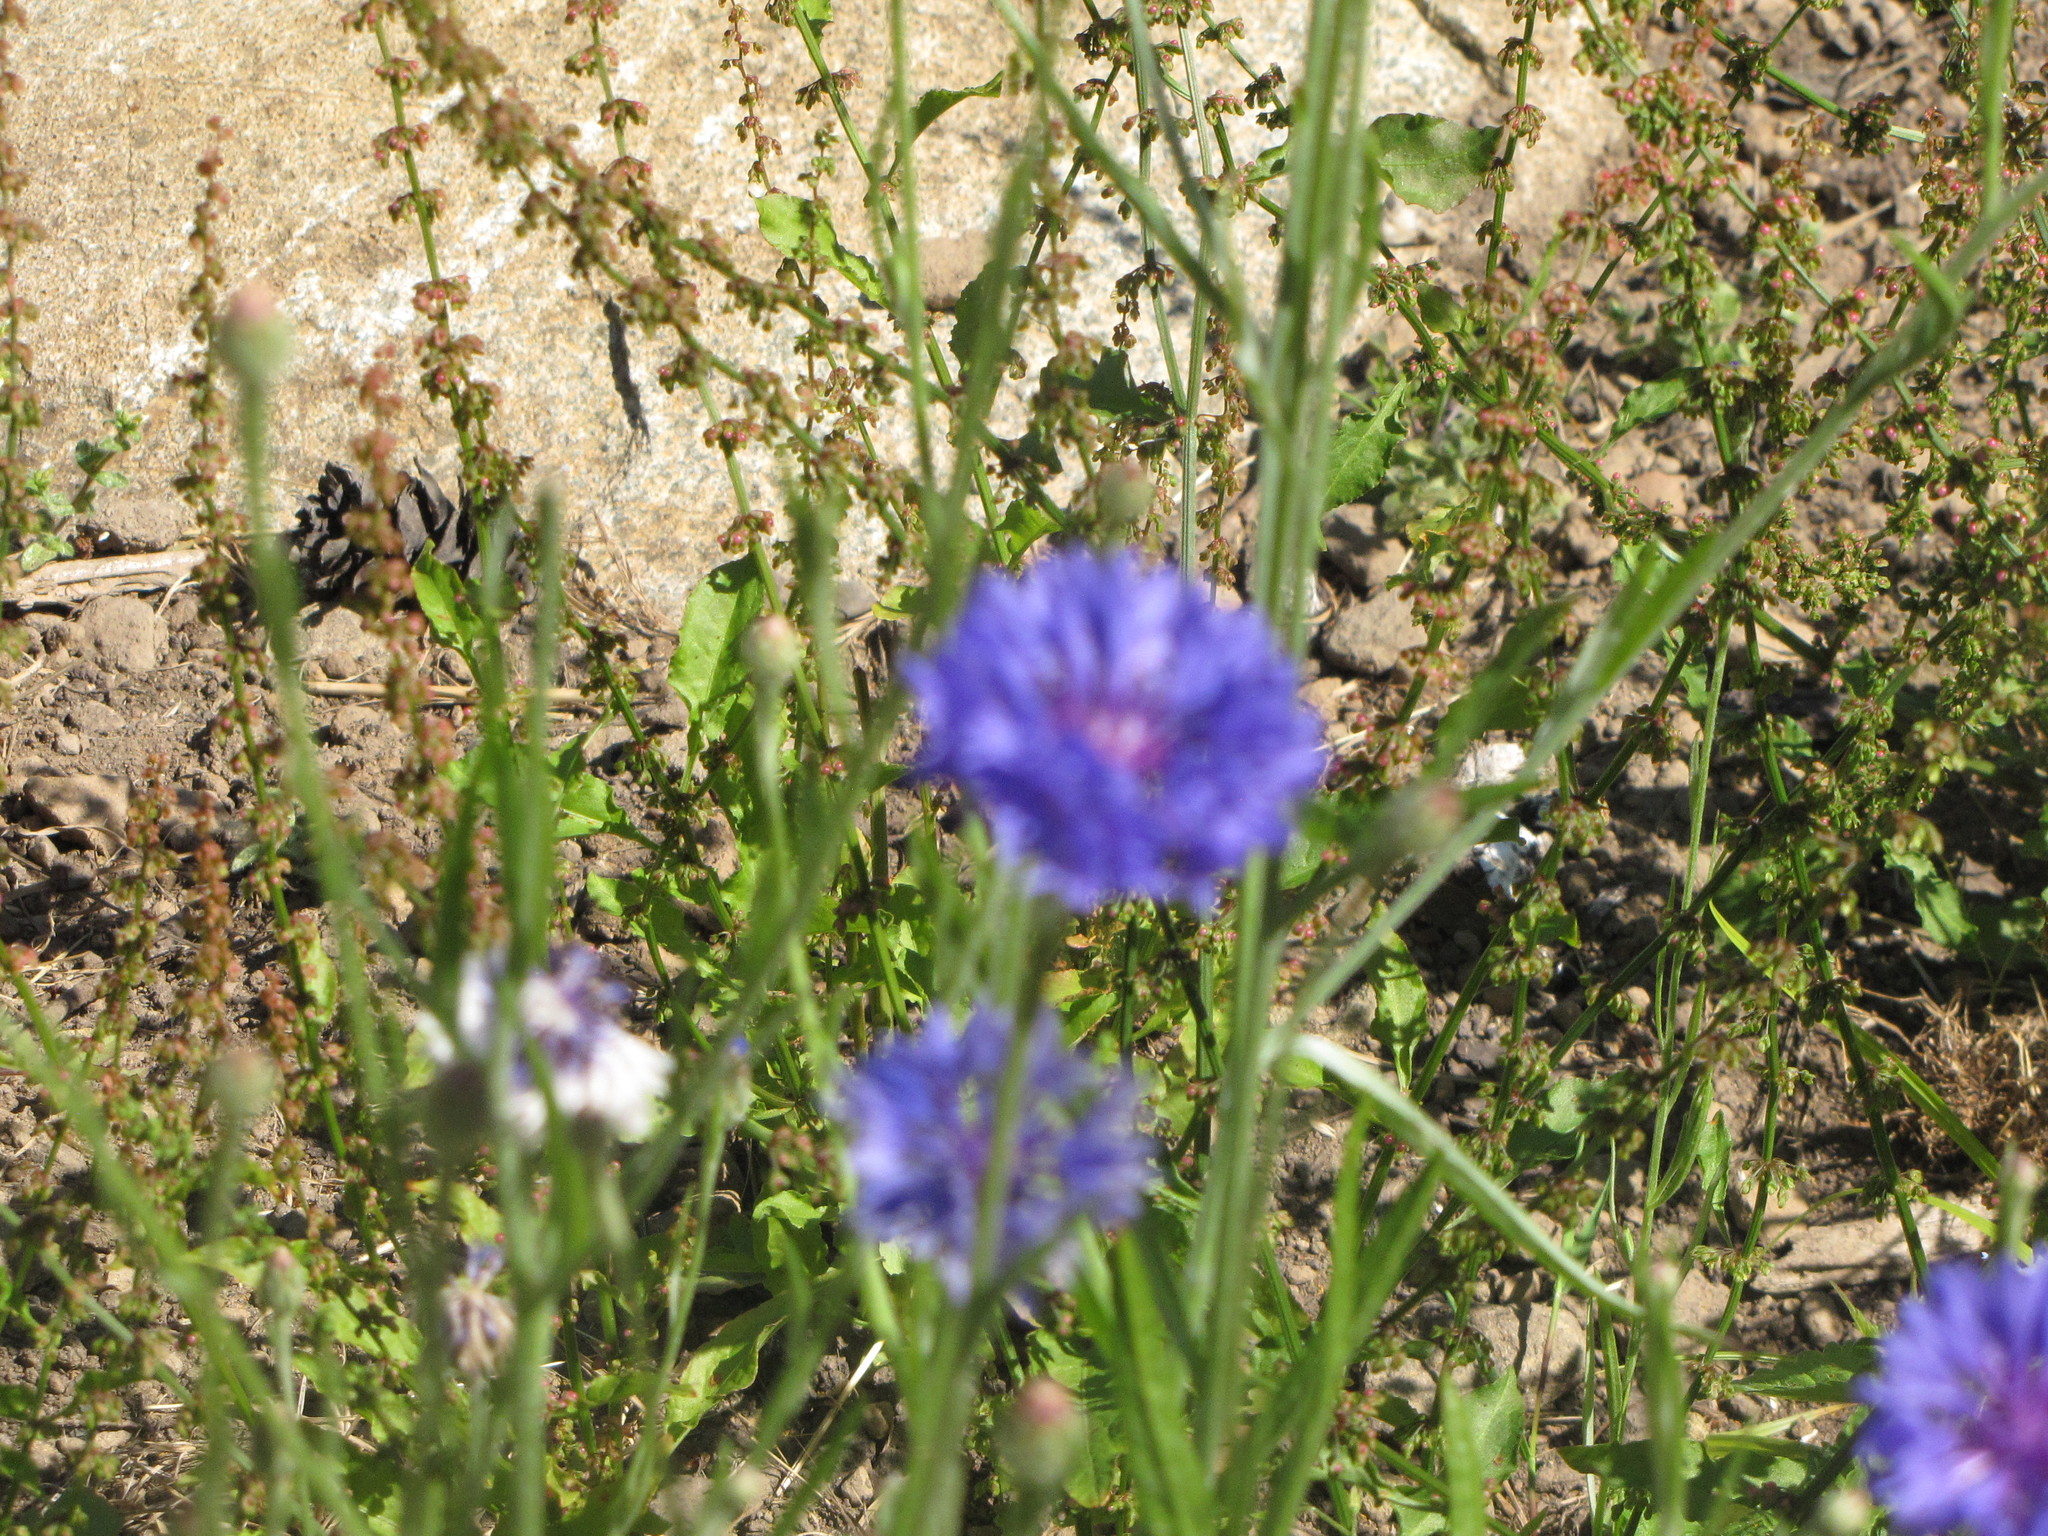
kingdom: Plantae
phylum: Tracheophyta
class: Magnoliopsida
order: Asterales
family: Asteraceae
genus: Centaurea
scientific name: Centaurea cyanus
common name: Cornflower
